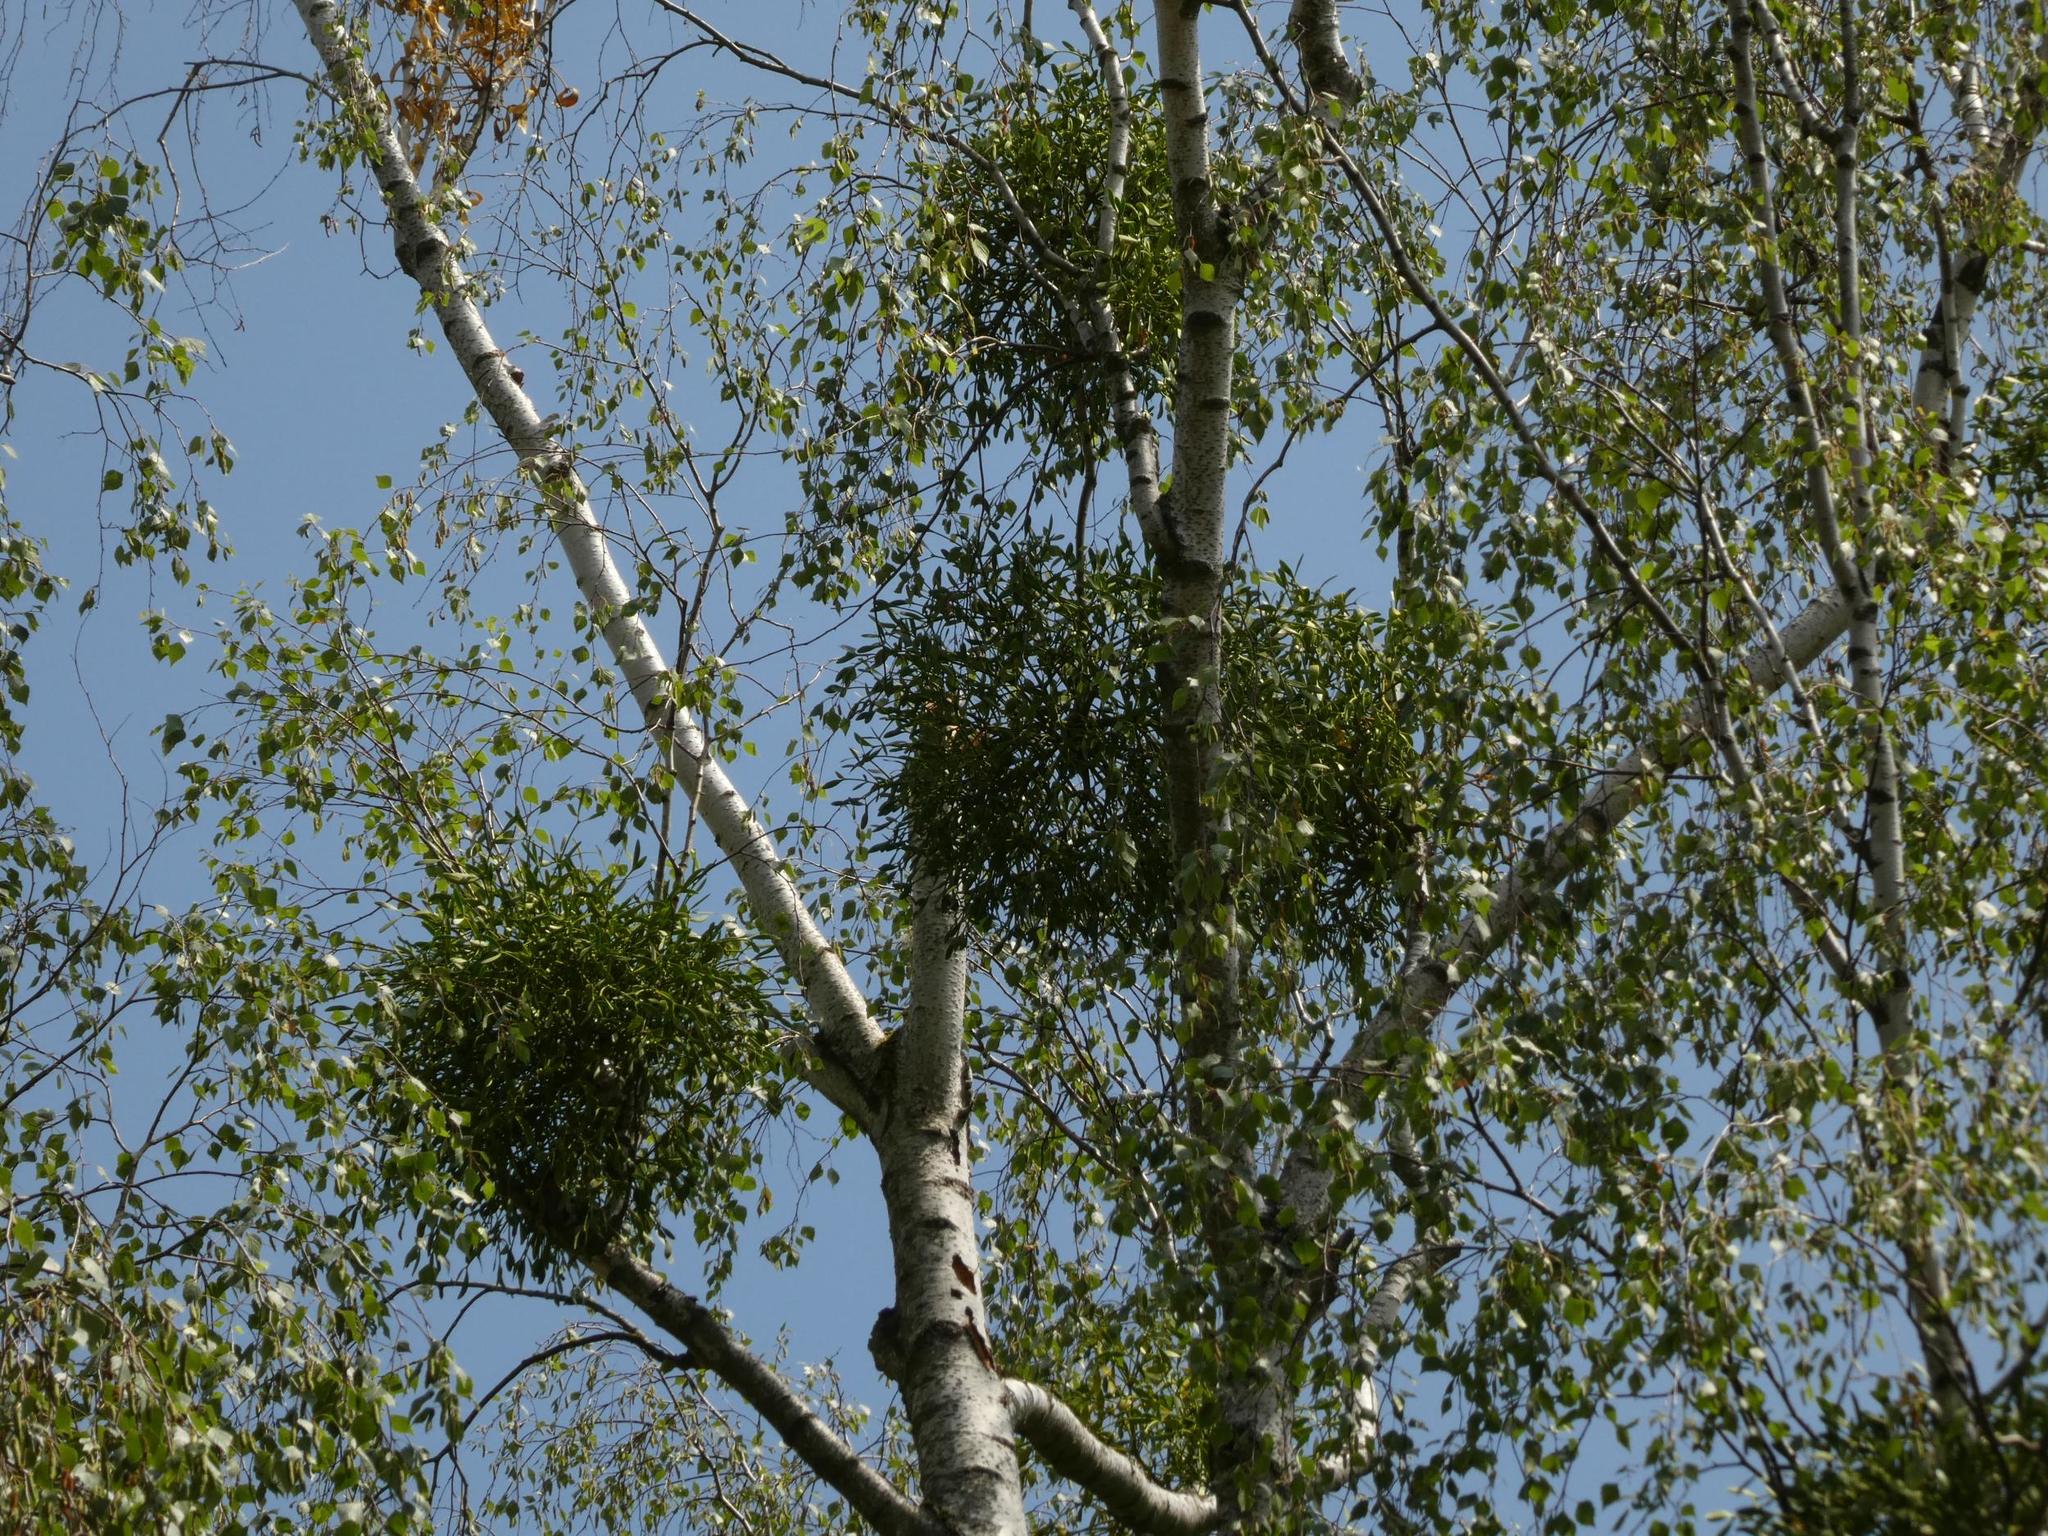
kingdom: Plantae
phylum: Tracheophyta
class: Magnoliopsida
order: Santalales
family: Viscaceae
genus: Viscum
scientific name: Viscum album
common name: Mistletoe
